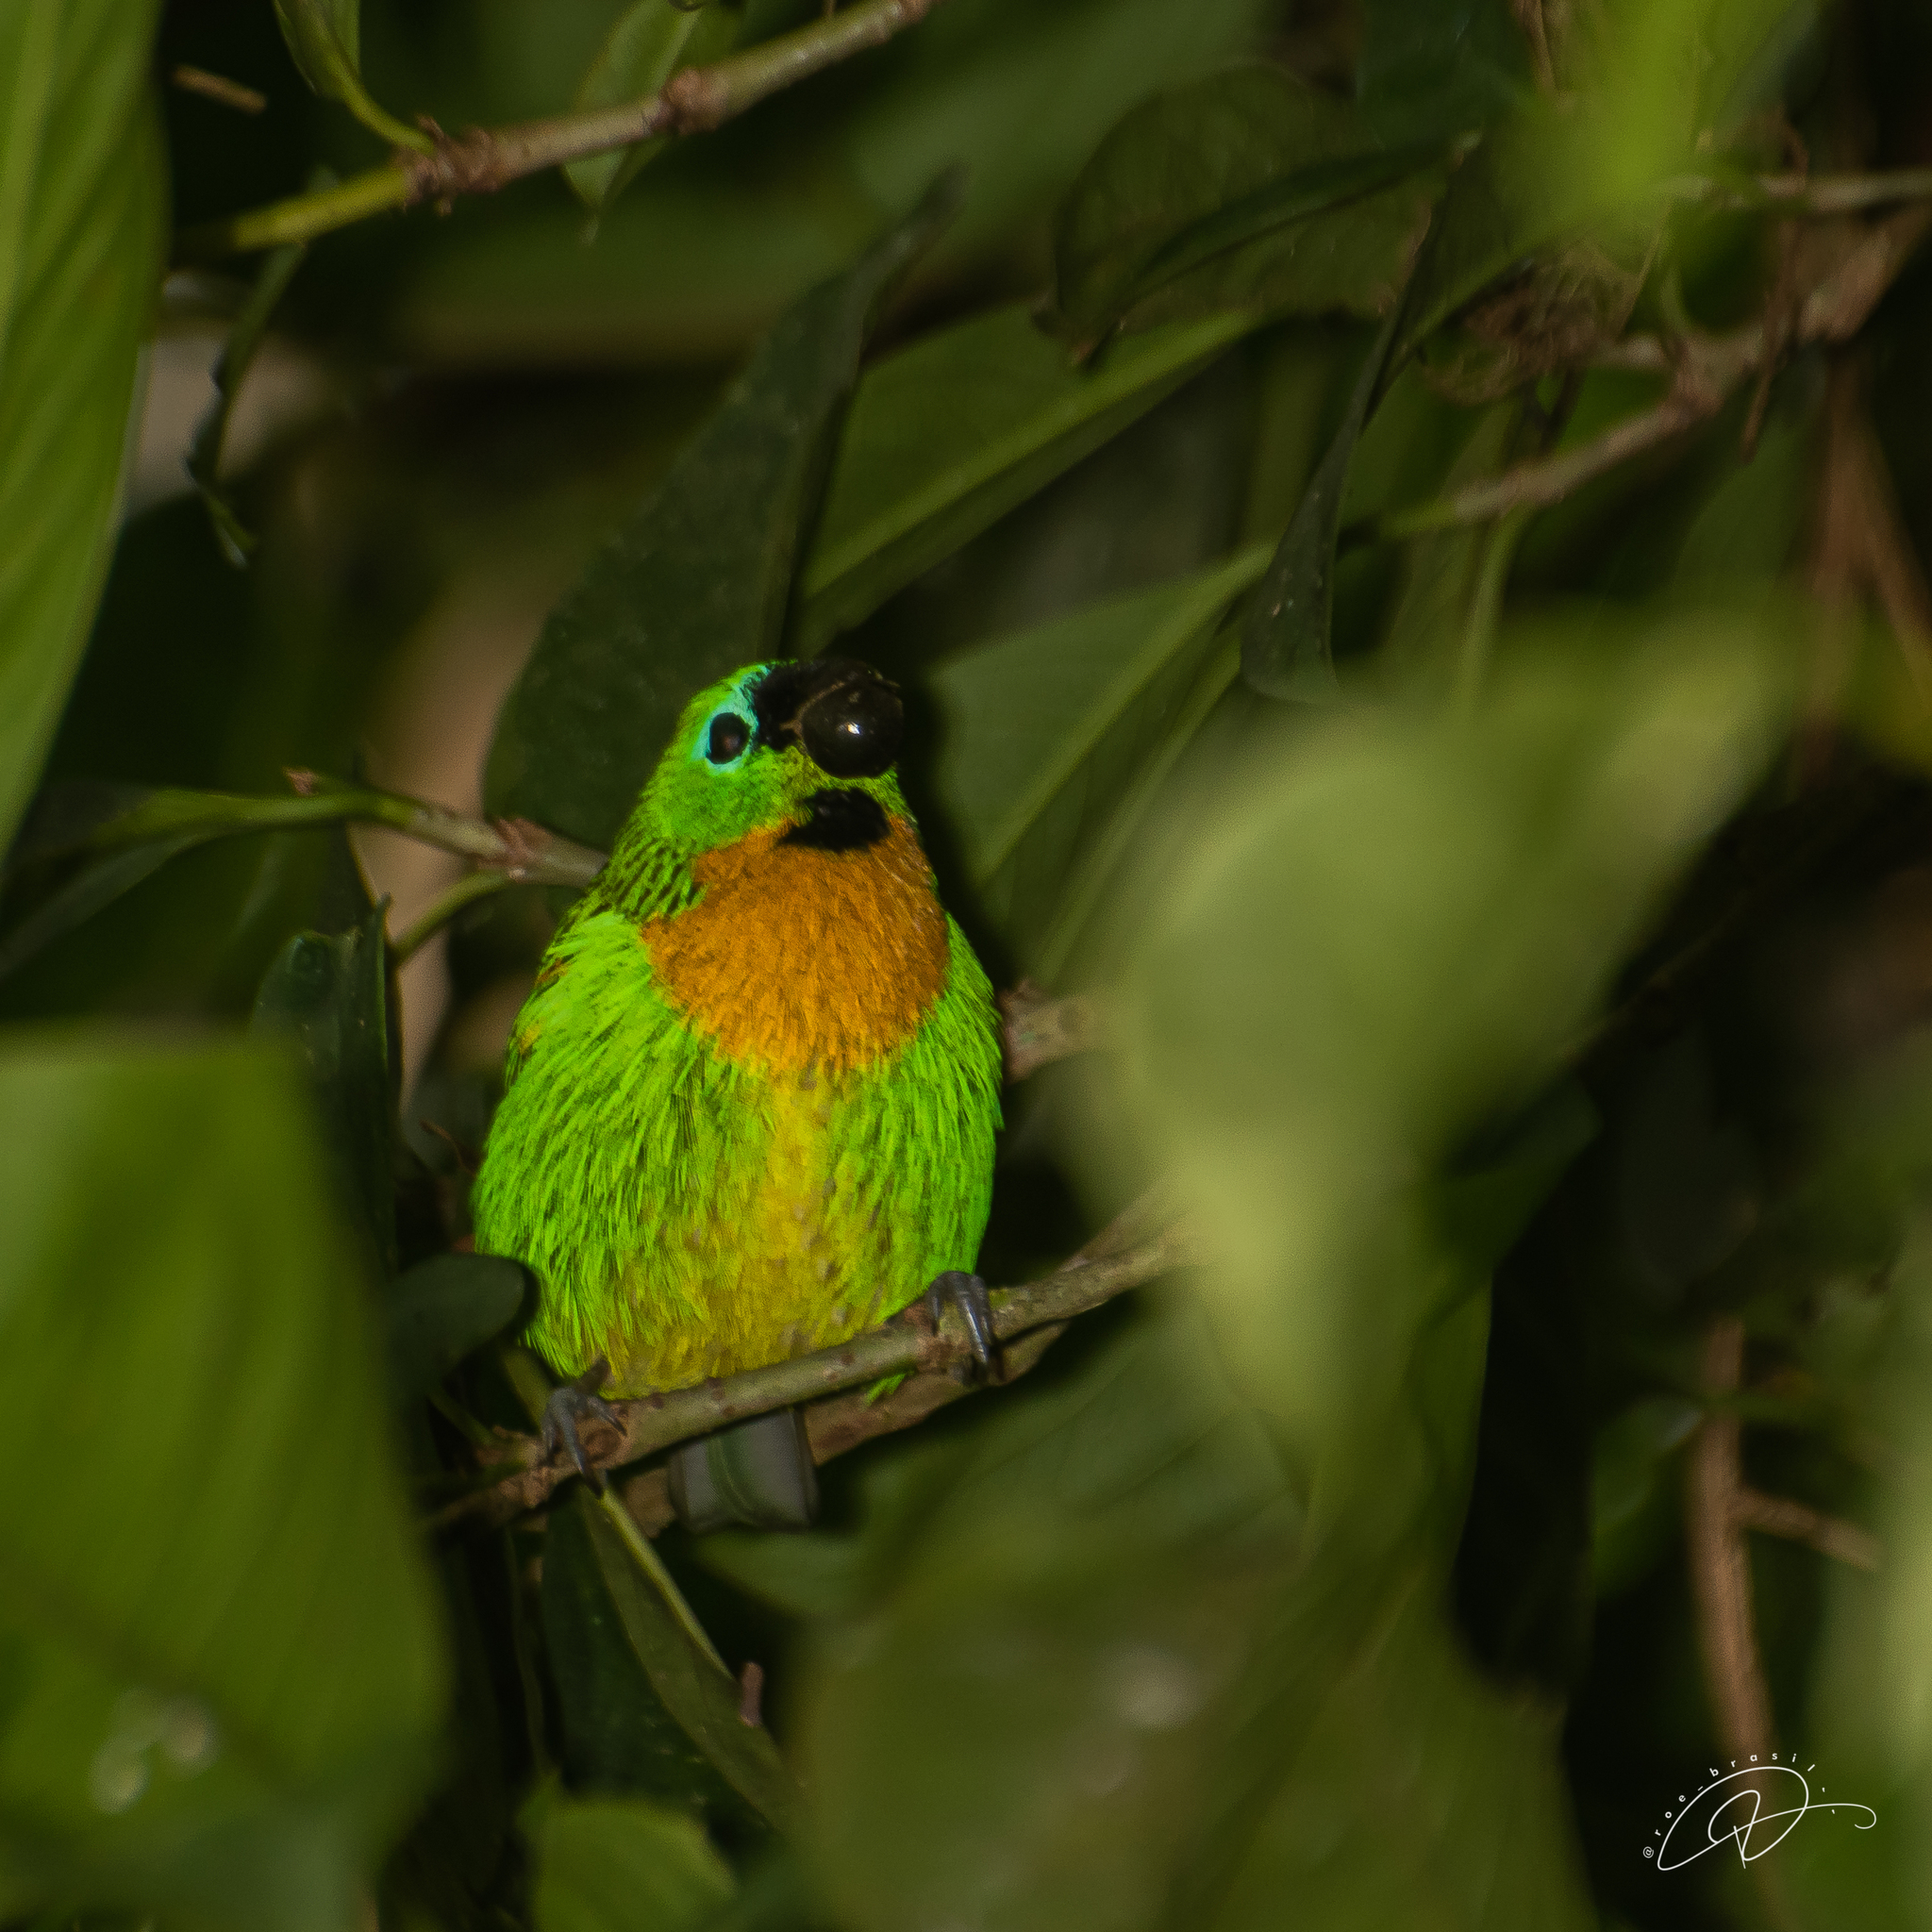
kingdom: Animalia
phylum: Chordata
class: Aves
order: Passeriformes
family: Thraupidae
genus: Tangara
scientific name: Tangara desmaresti
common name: Brassy-breasted tanager
